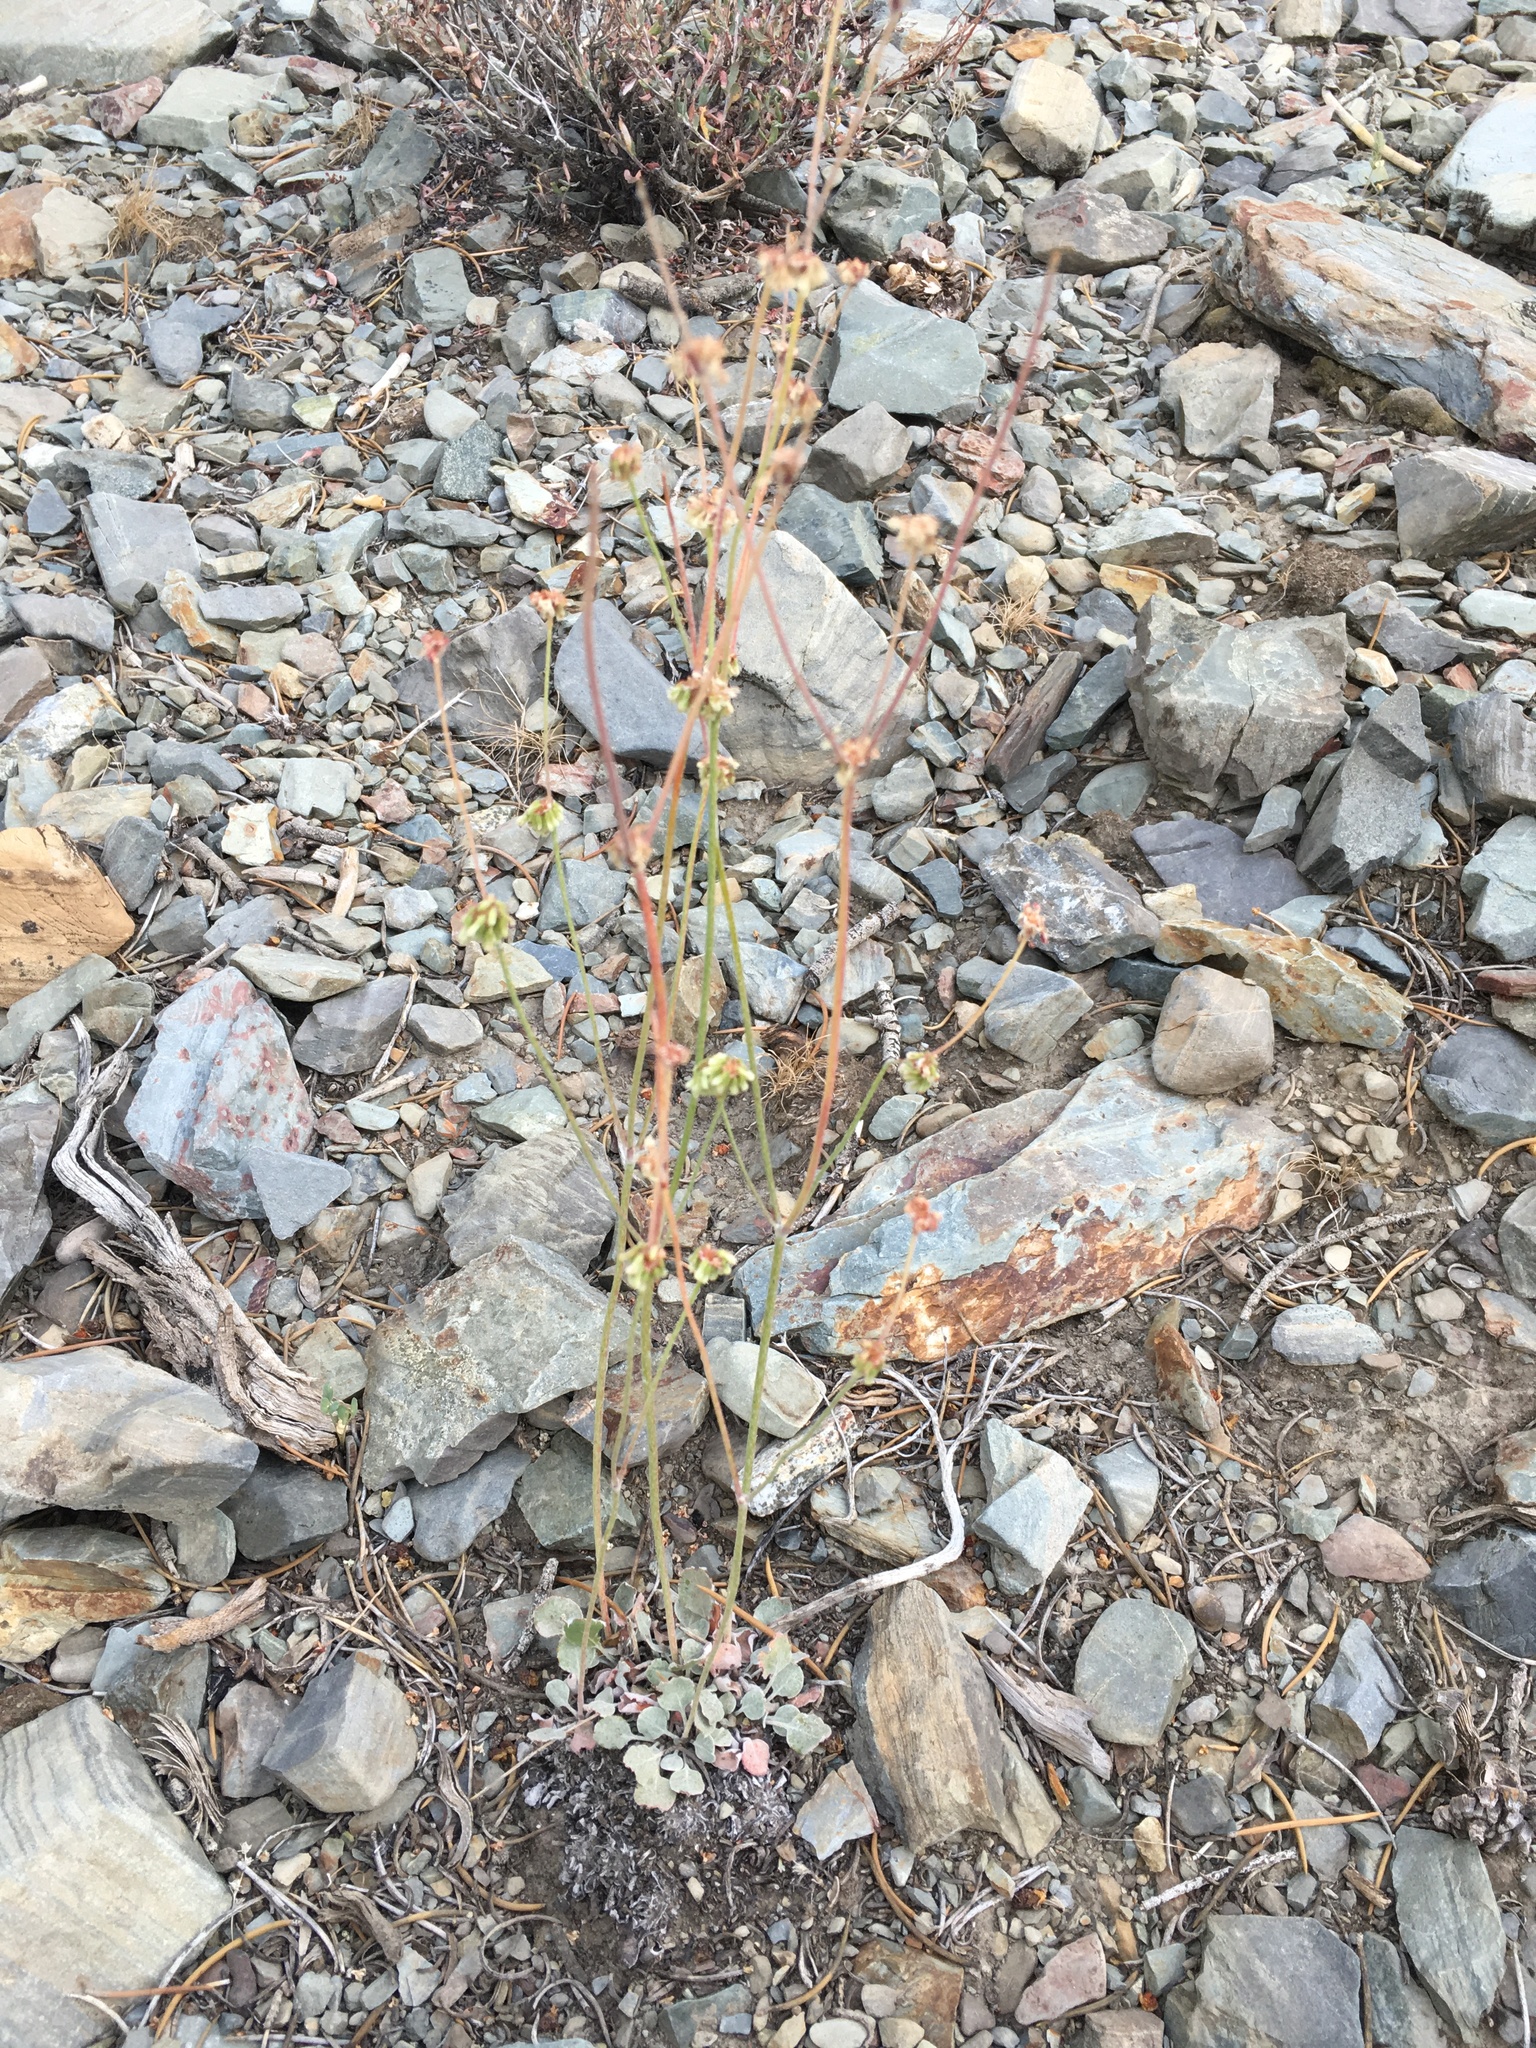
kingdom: Plantae
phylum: Tracheophyta
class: Magnoliopsida
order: Caryophyllales
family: Polygonaceae
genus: Eriogonum
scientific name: Eriogonum mensicola
